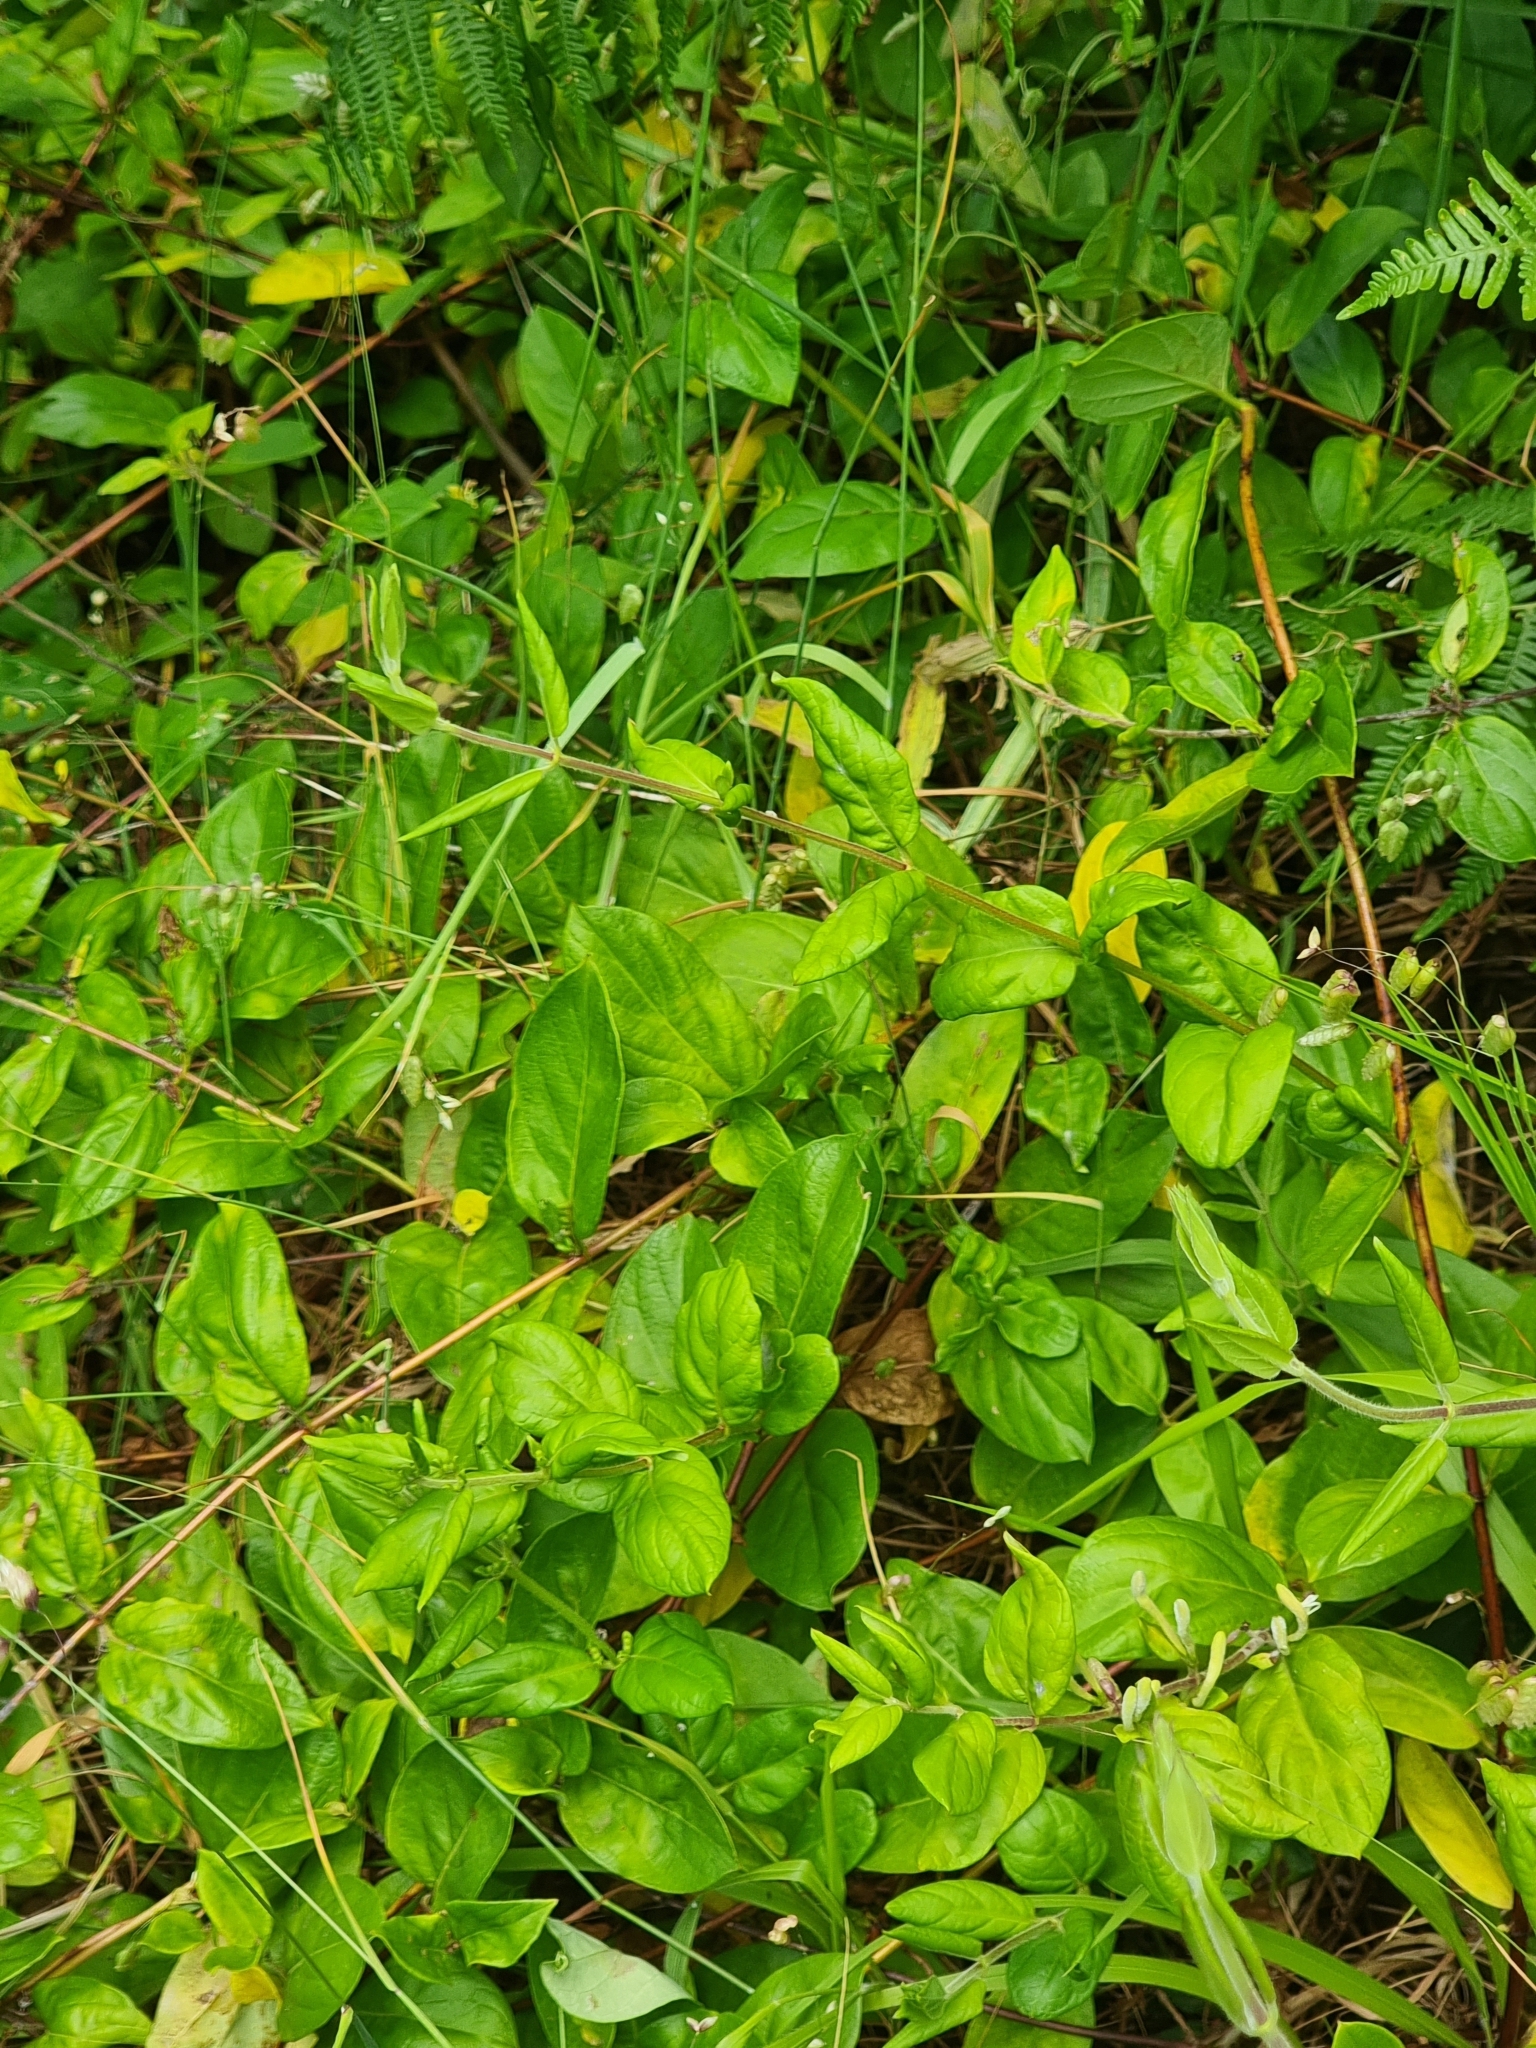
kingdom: Plantae
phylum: Tracheophyta
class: Magnoliopsida
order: Gentianales
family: Apocynaceae
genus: Vinca
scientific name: Vinca major
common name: Greater periwinkle
